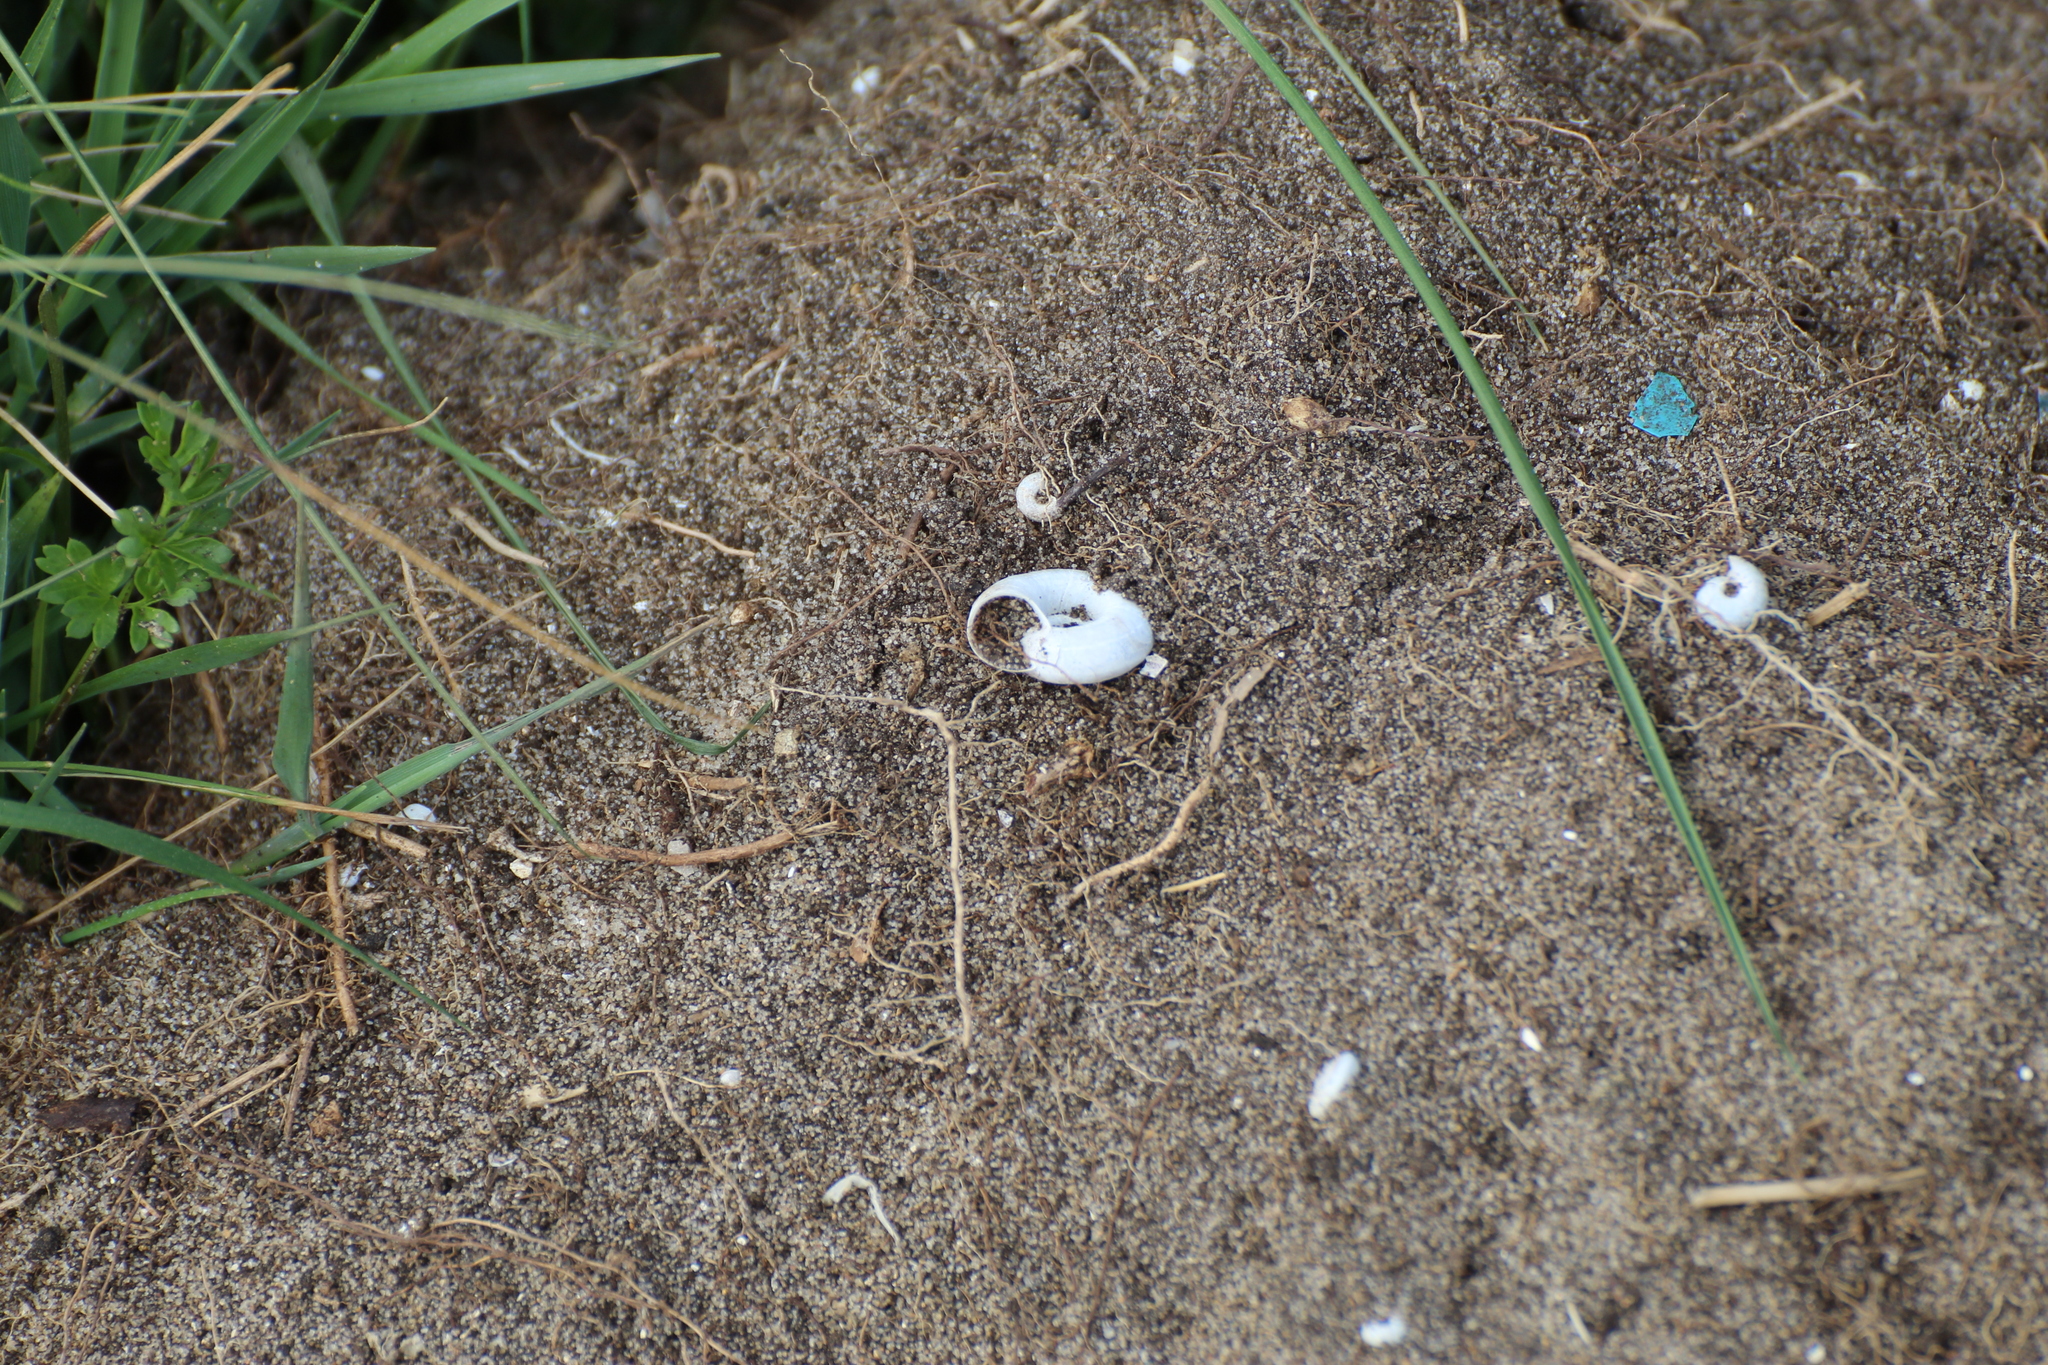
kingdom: Animalia
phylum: Mollusca
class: Gastropoda
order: Stylommatophora
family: Geomitridae
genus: Helicella
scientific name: Helicella itala
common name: Heath snail
